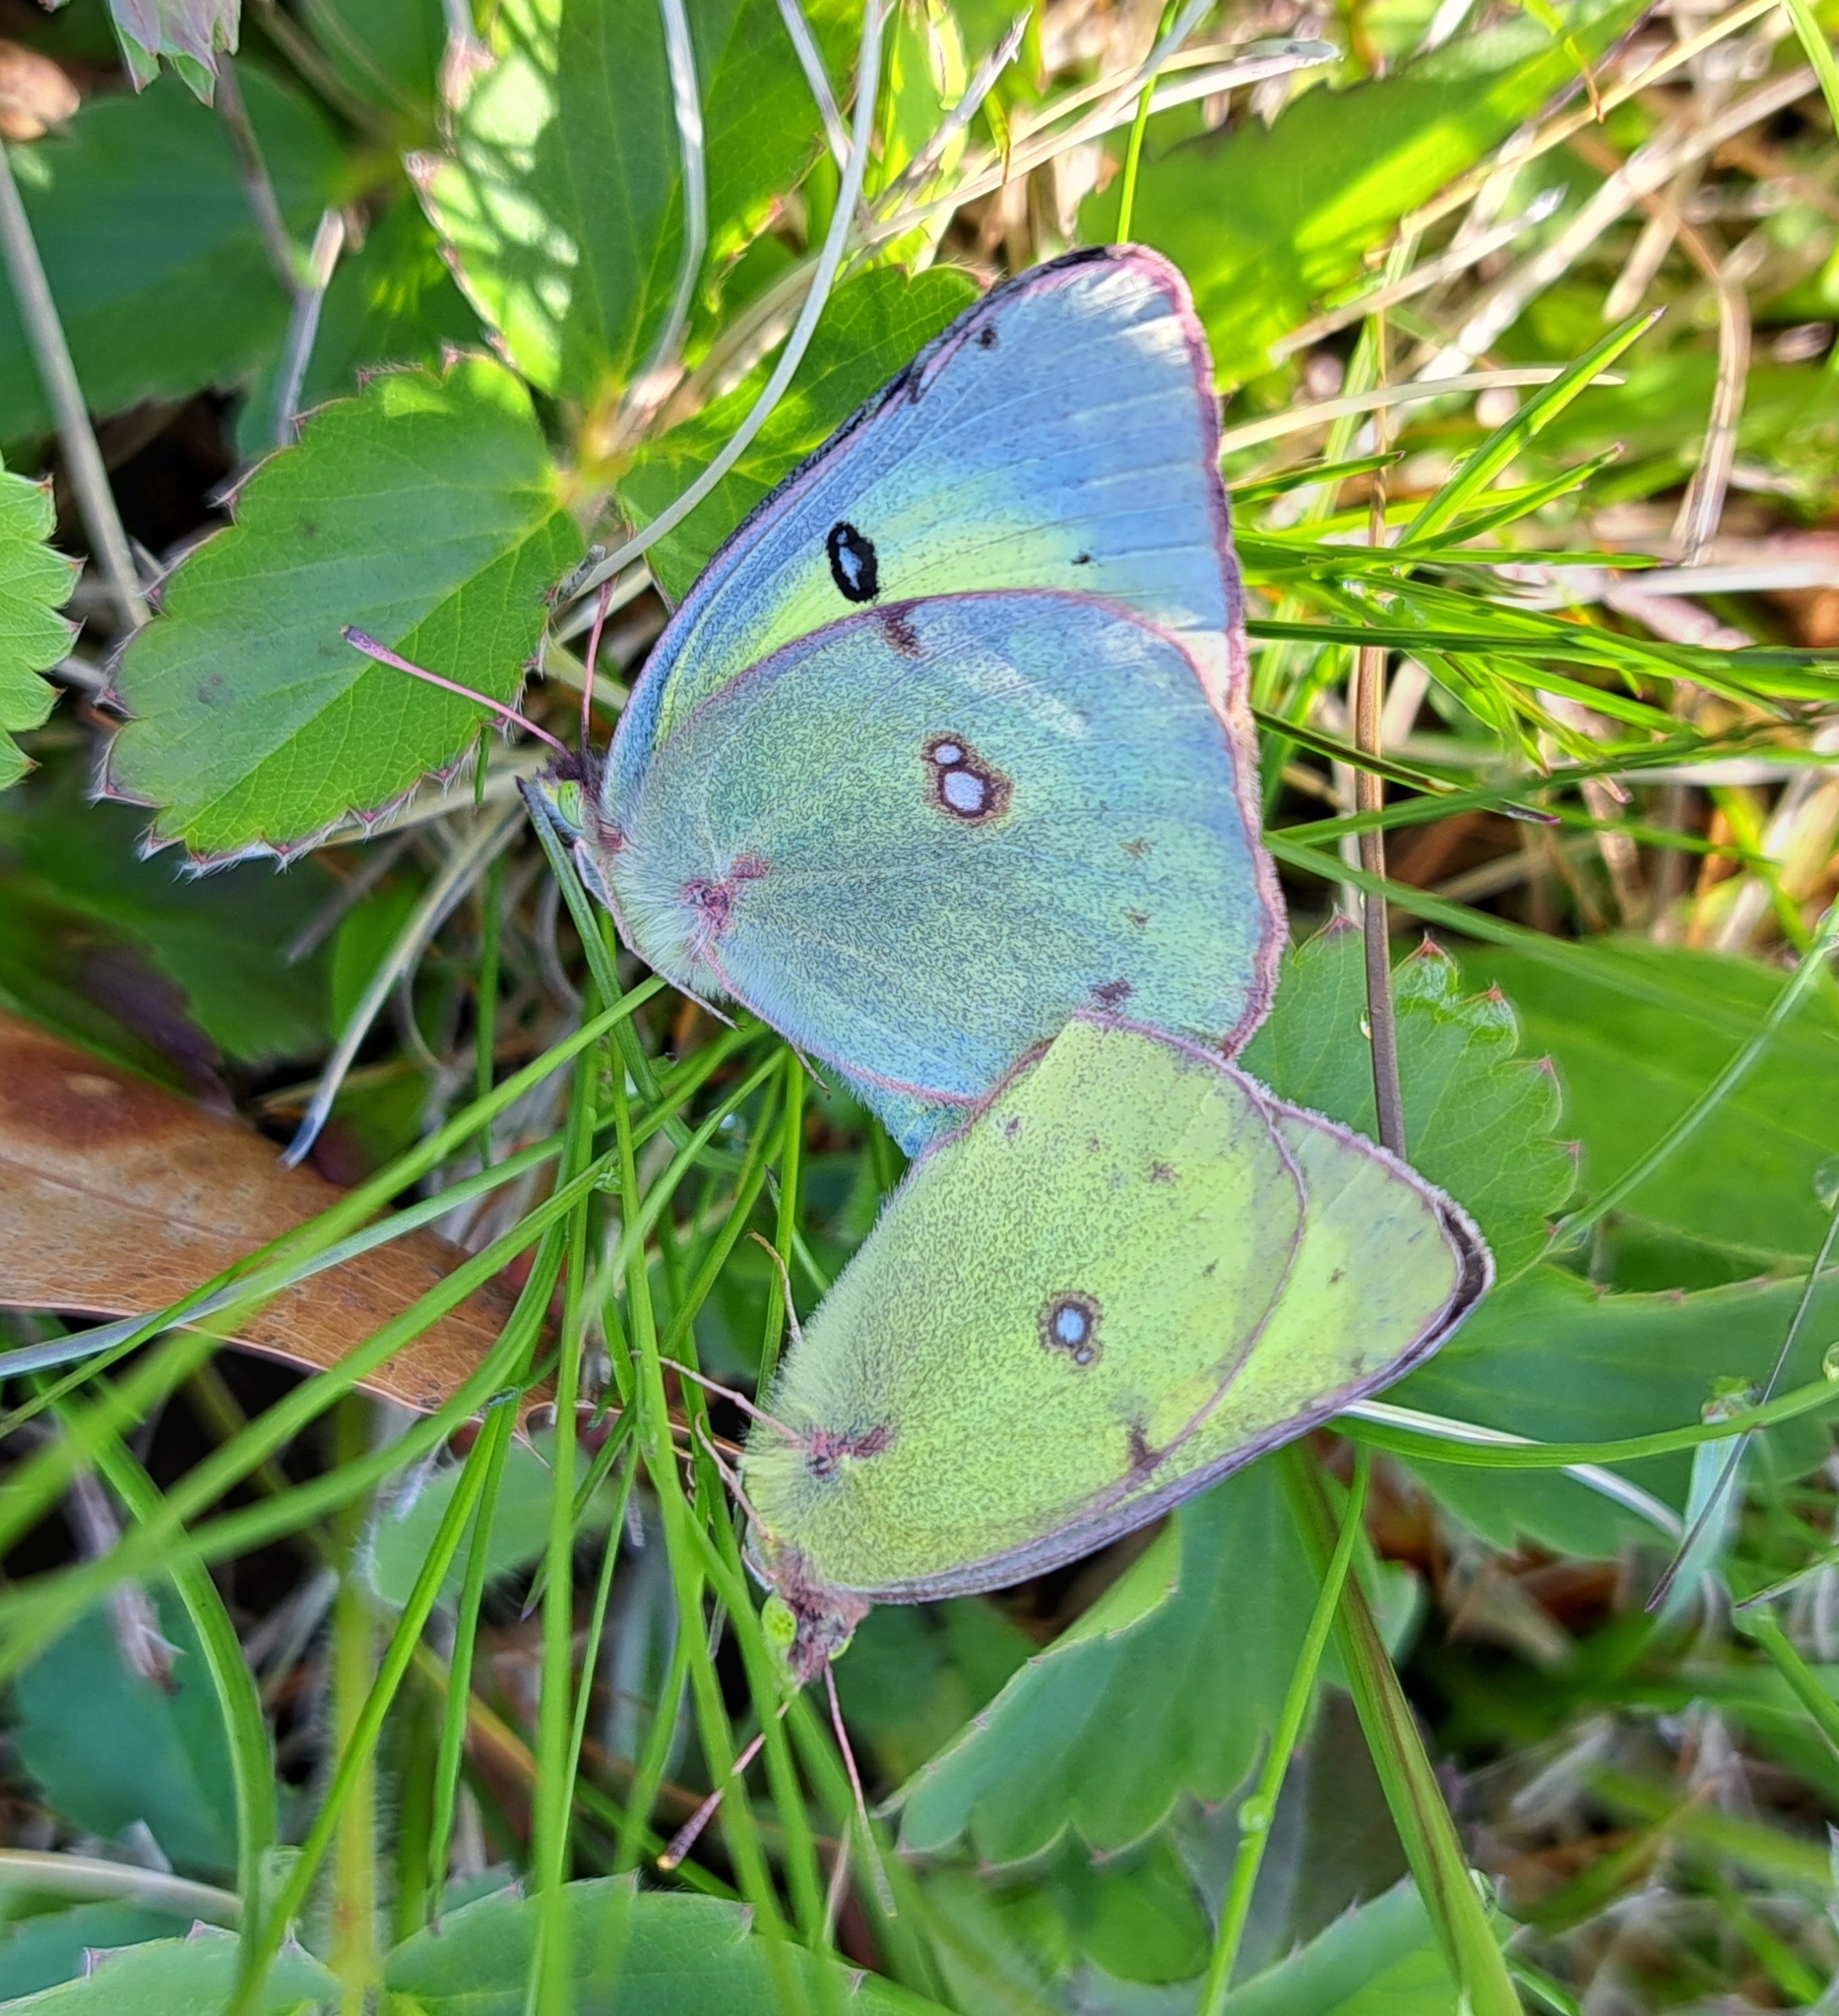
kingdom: Animalia
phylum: Arthropoda
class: Insecta
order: Lepidoptera
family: Pieridae
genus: Colias
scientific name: Colias philodice
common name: Clouded sulphur
